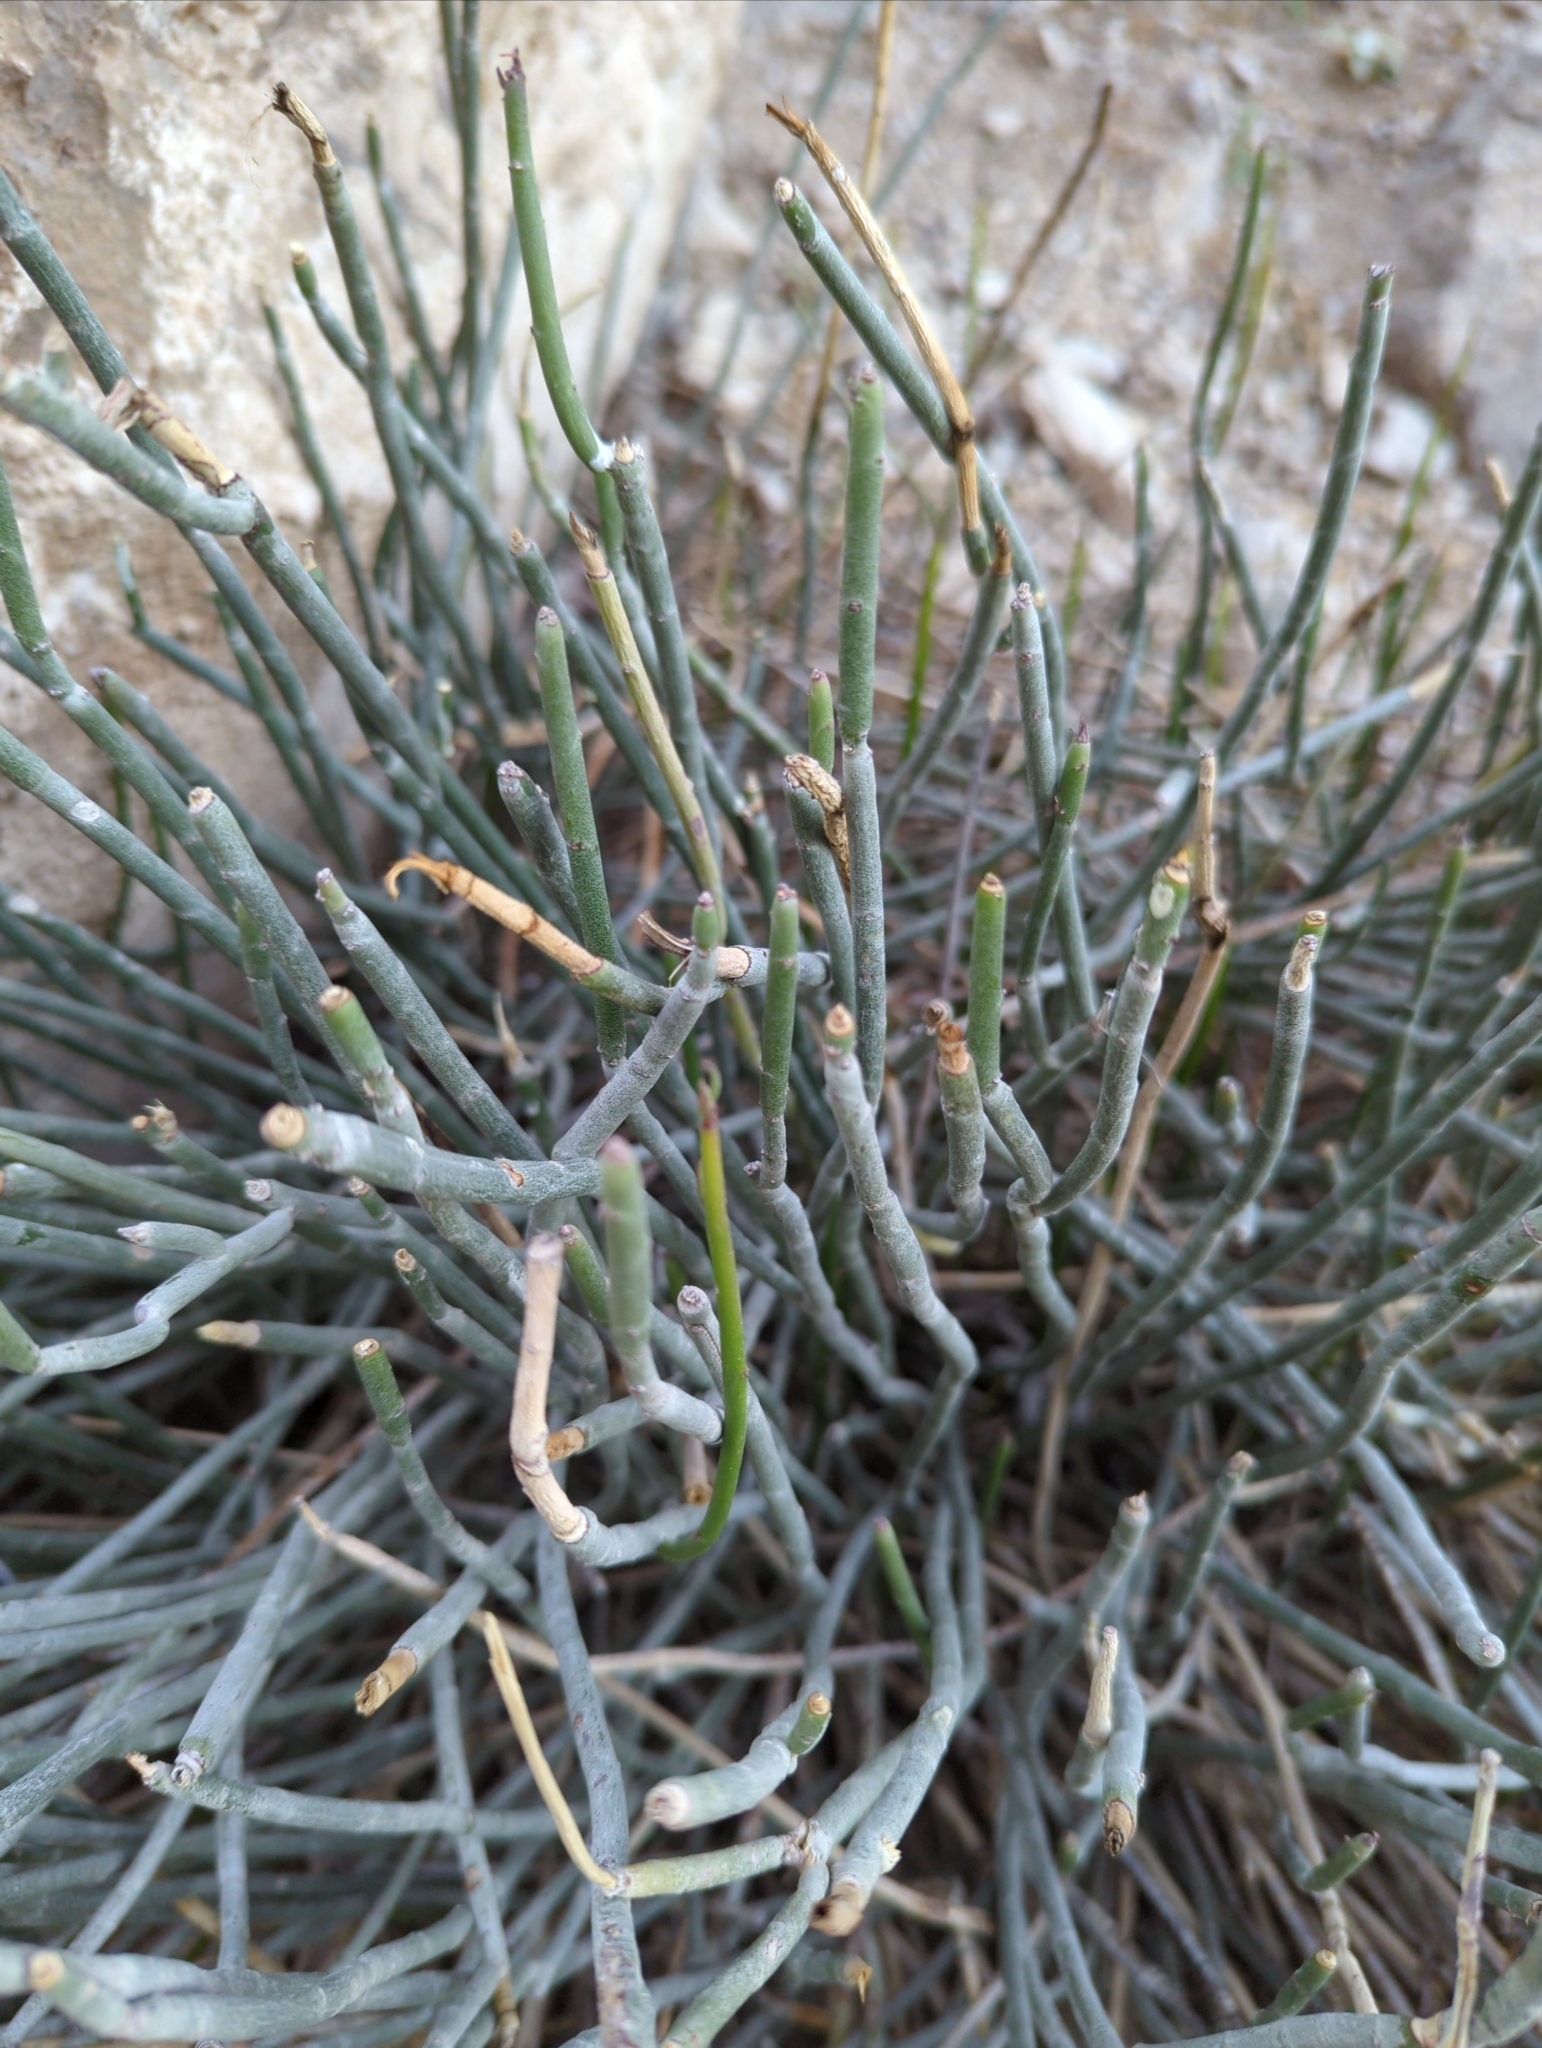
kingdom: Plantae
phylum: Tracheophyta
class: Magnoliopsida
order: Malpighiales
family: Euphorbiaceae
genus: Euphorbia
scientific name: Euphorbia antisyphilitica
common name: Candelilla
